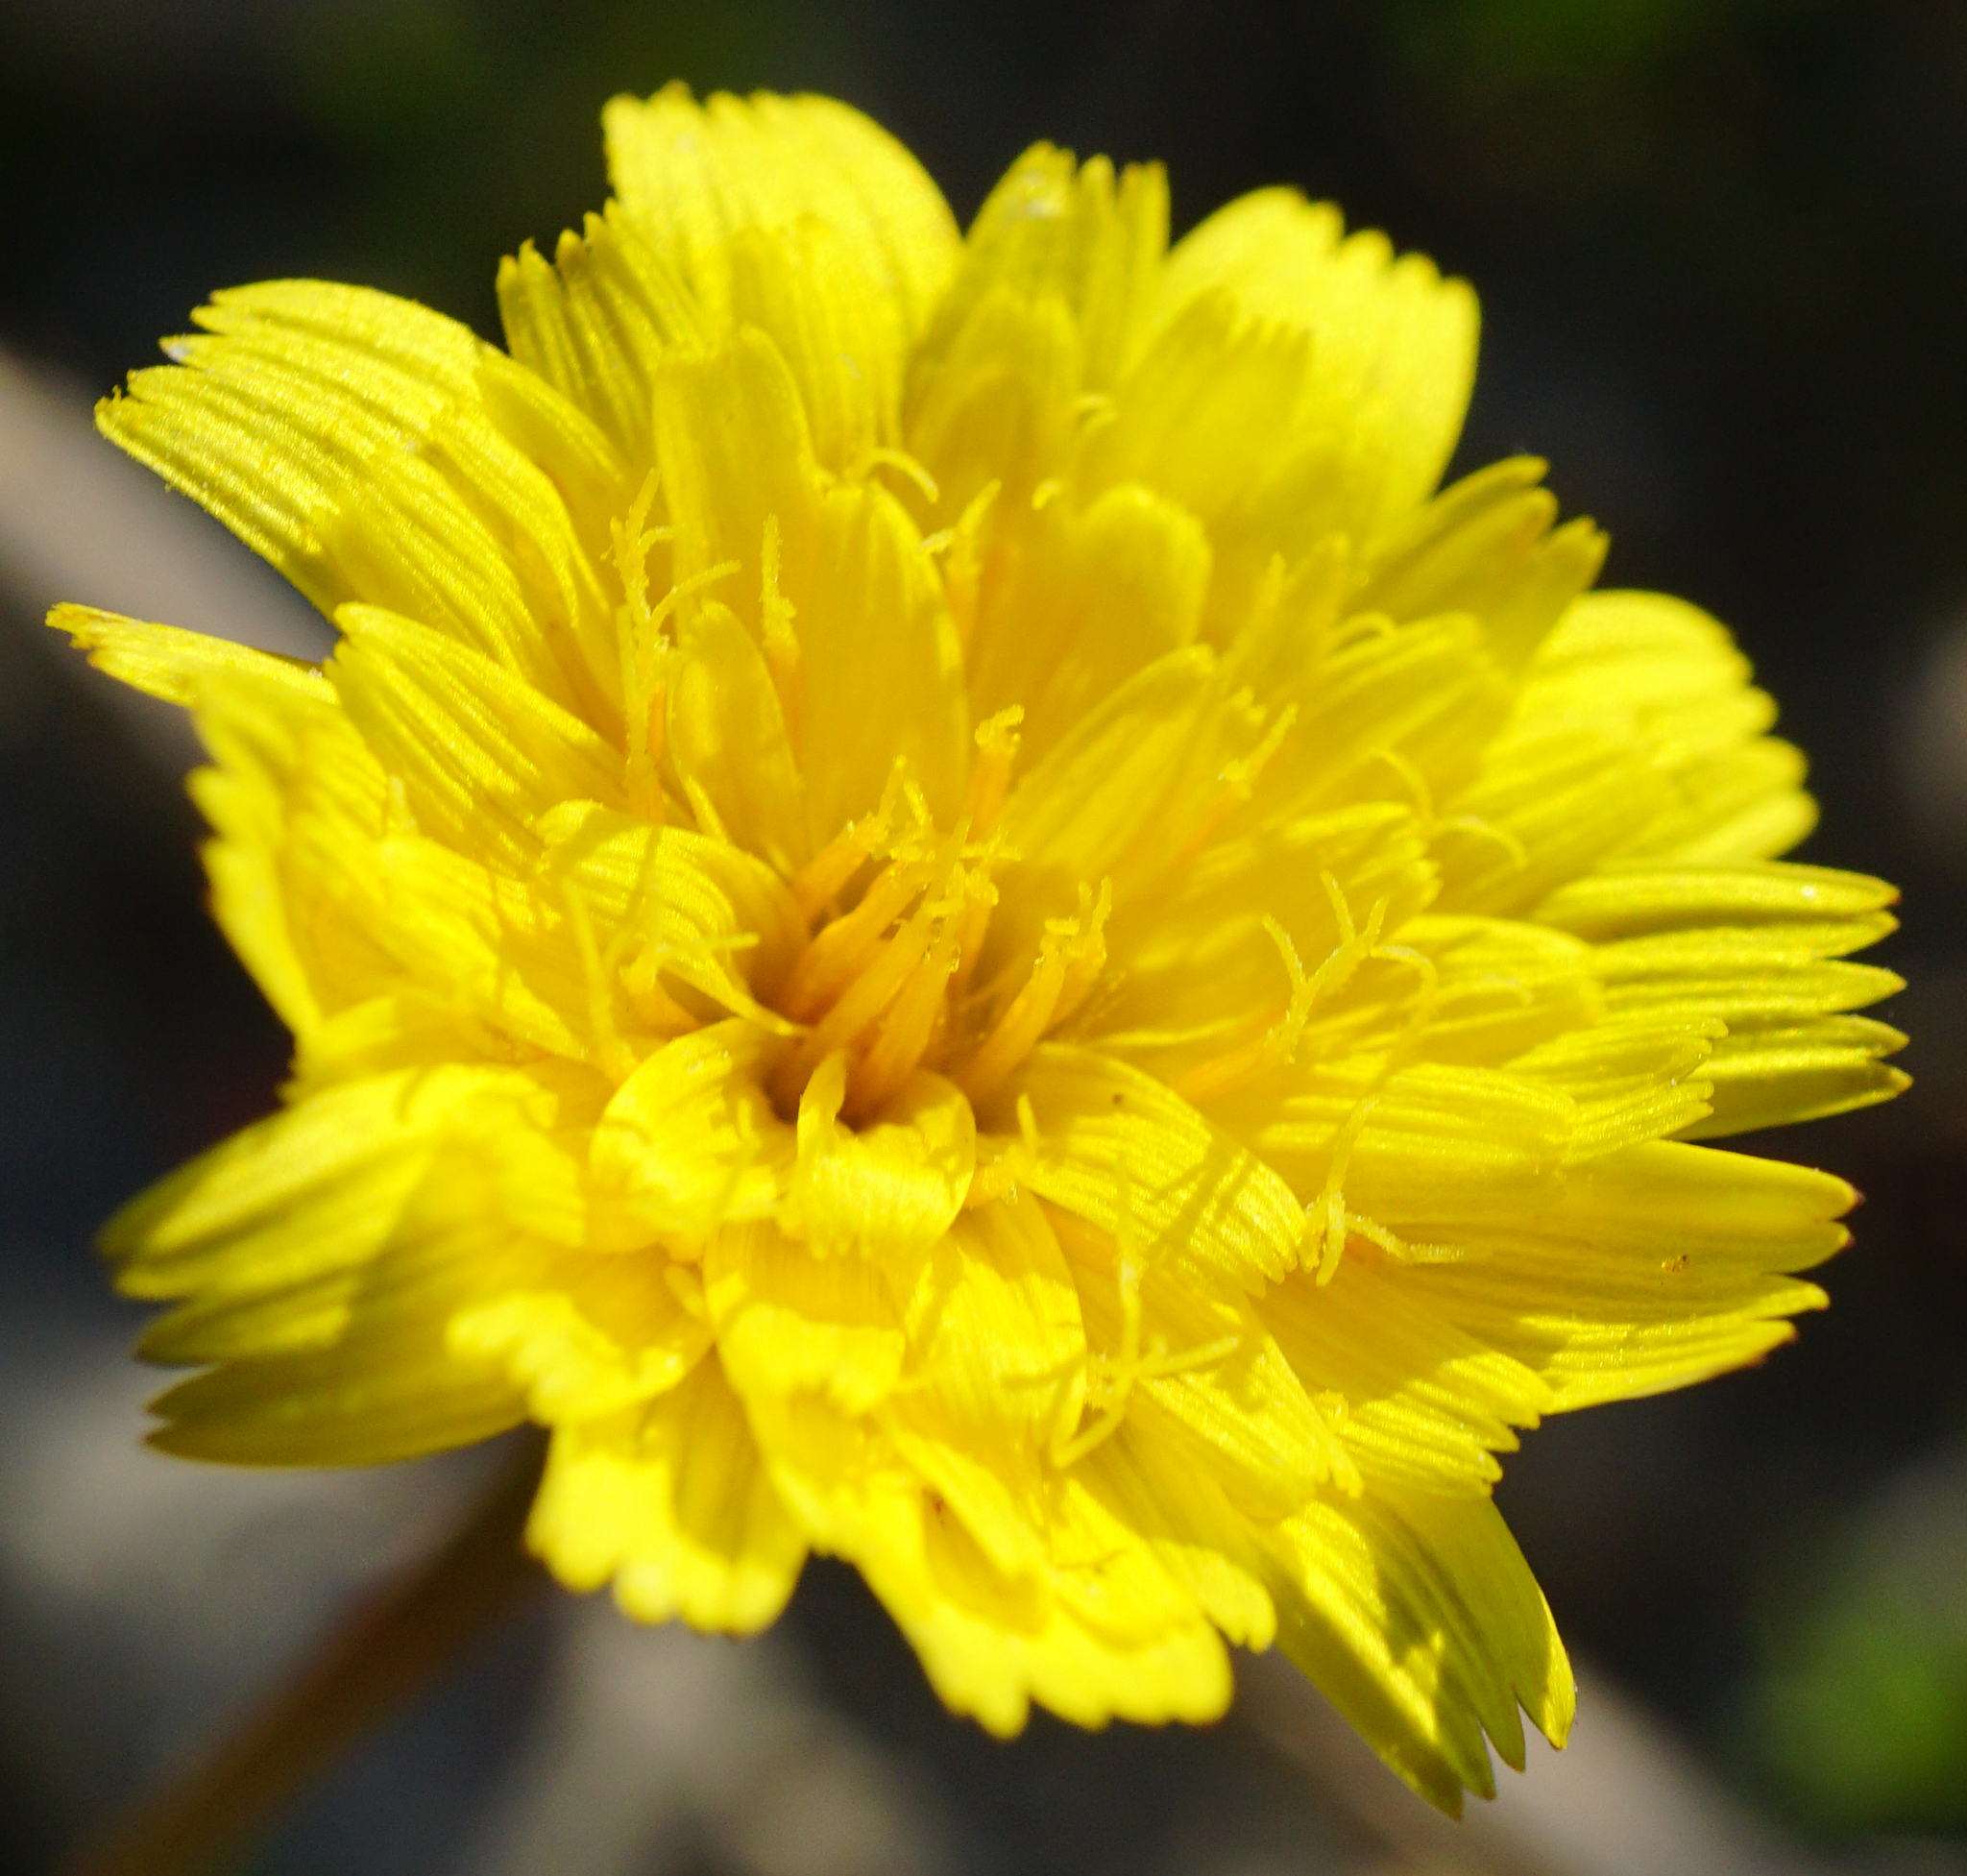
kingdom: Plantae
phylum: Tracheophyta
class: Magnoliopsida
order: Asterales
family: Asteraceae
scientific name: Asteraceae
